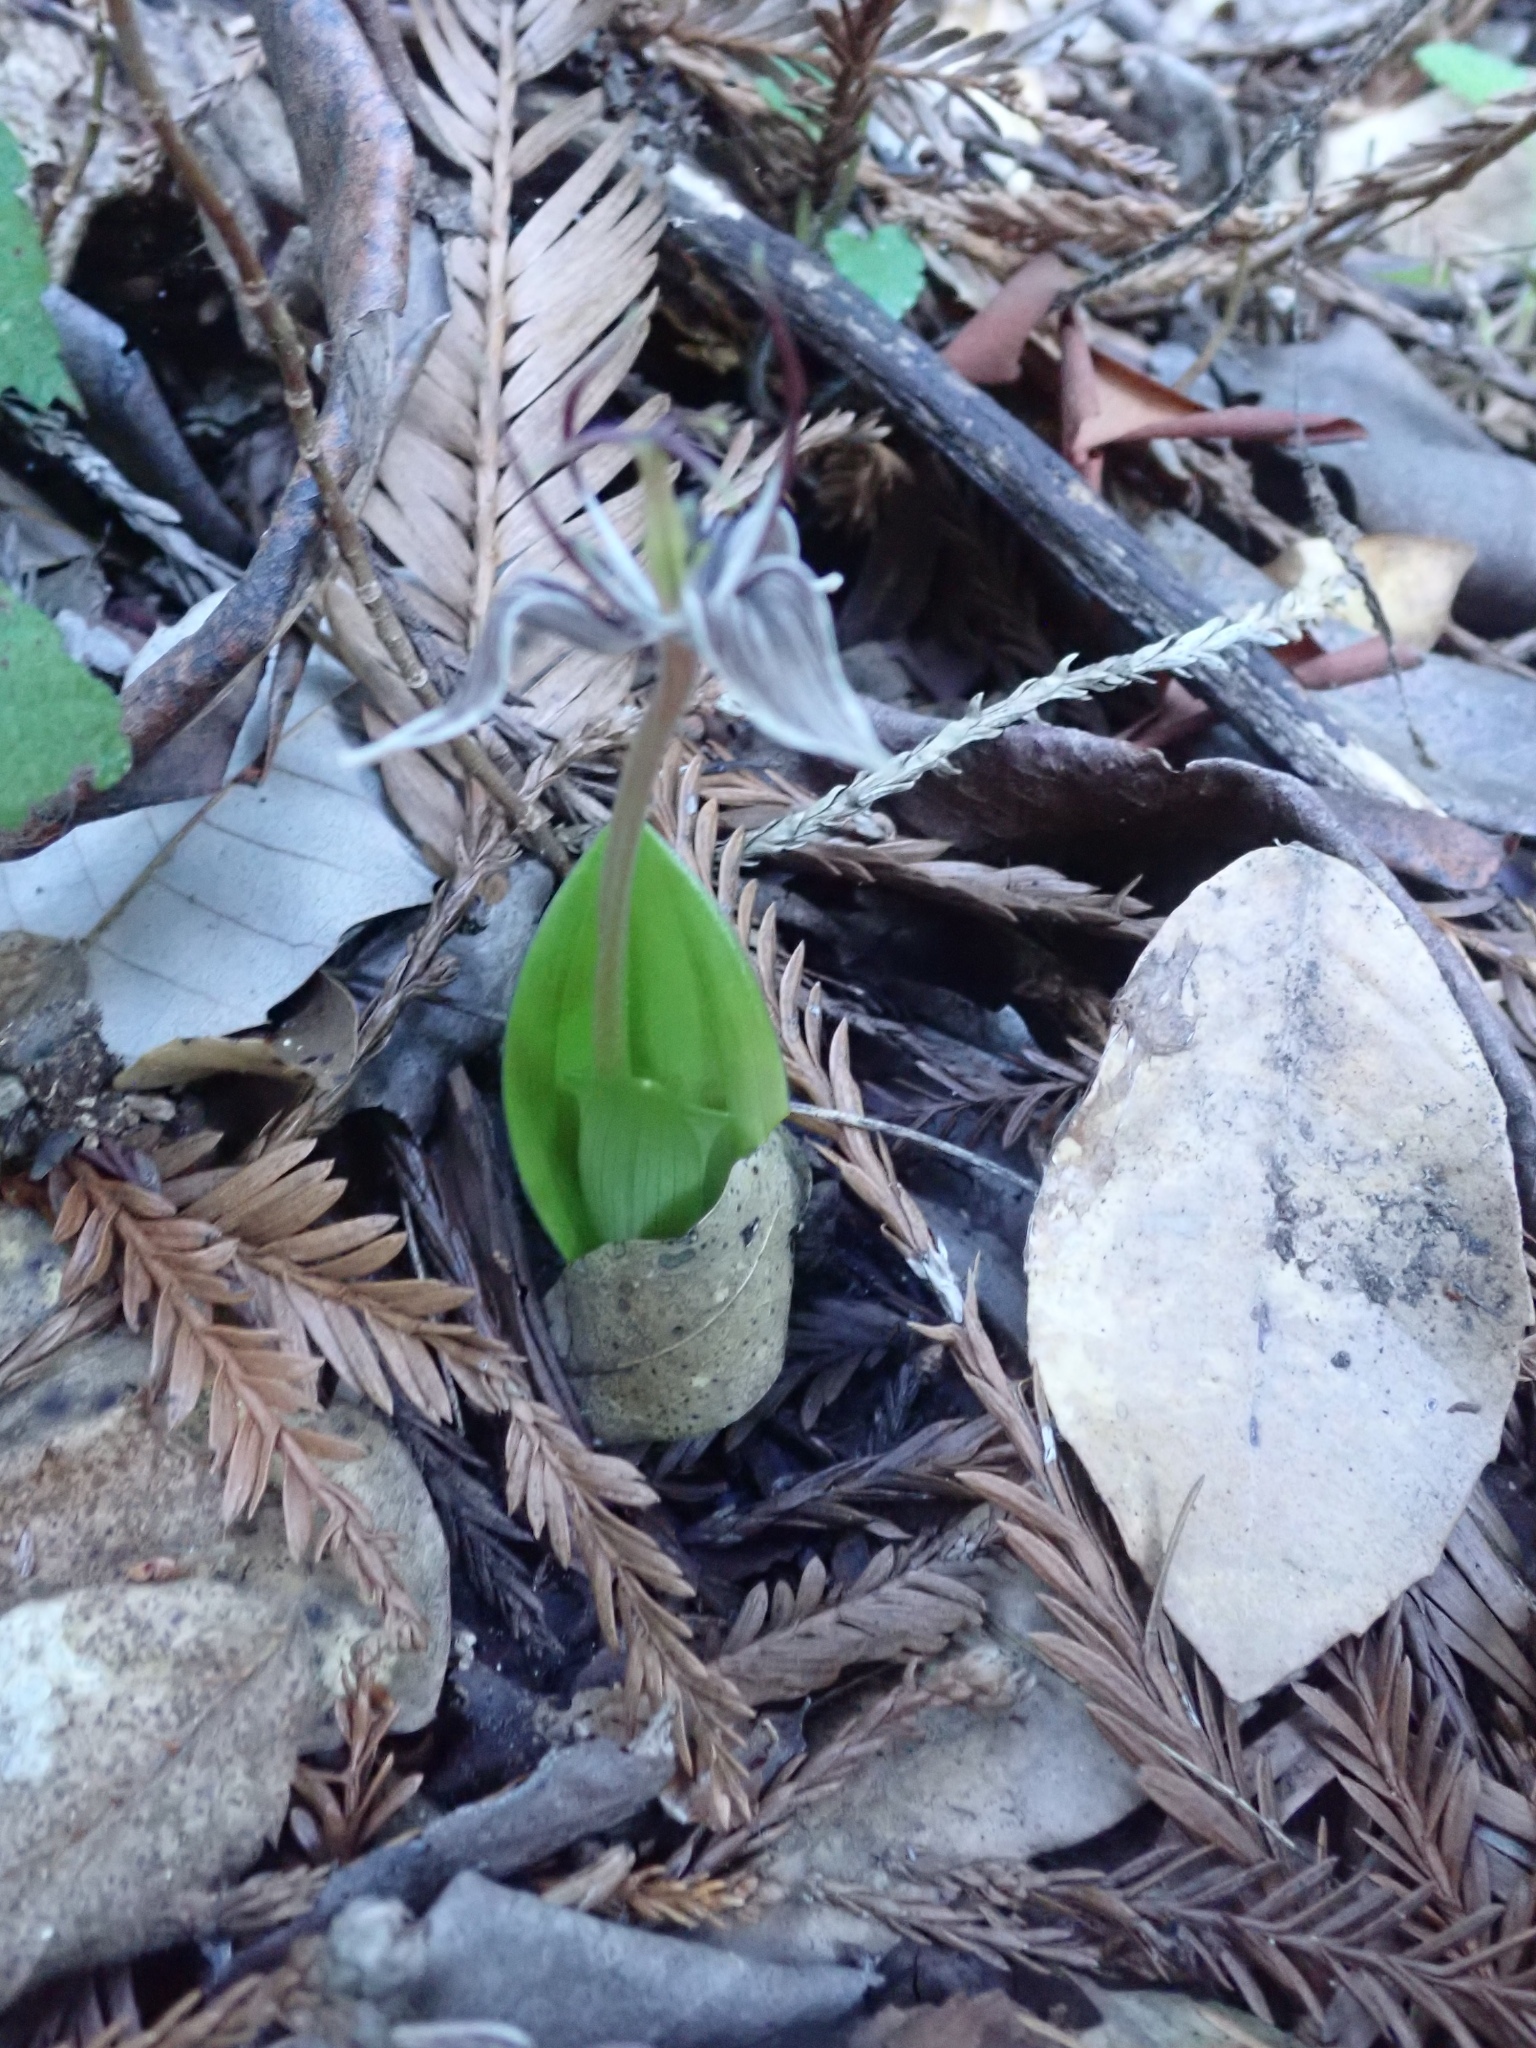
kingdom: Plantae
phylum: Tracheophyta
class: Liliopsida
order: Liliales
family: Liliaceae
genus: Scoliopus
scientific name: Scoliopus bigelovii
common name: Foetid adder's-tongue
